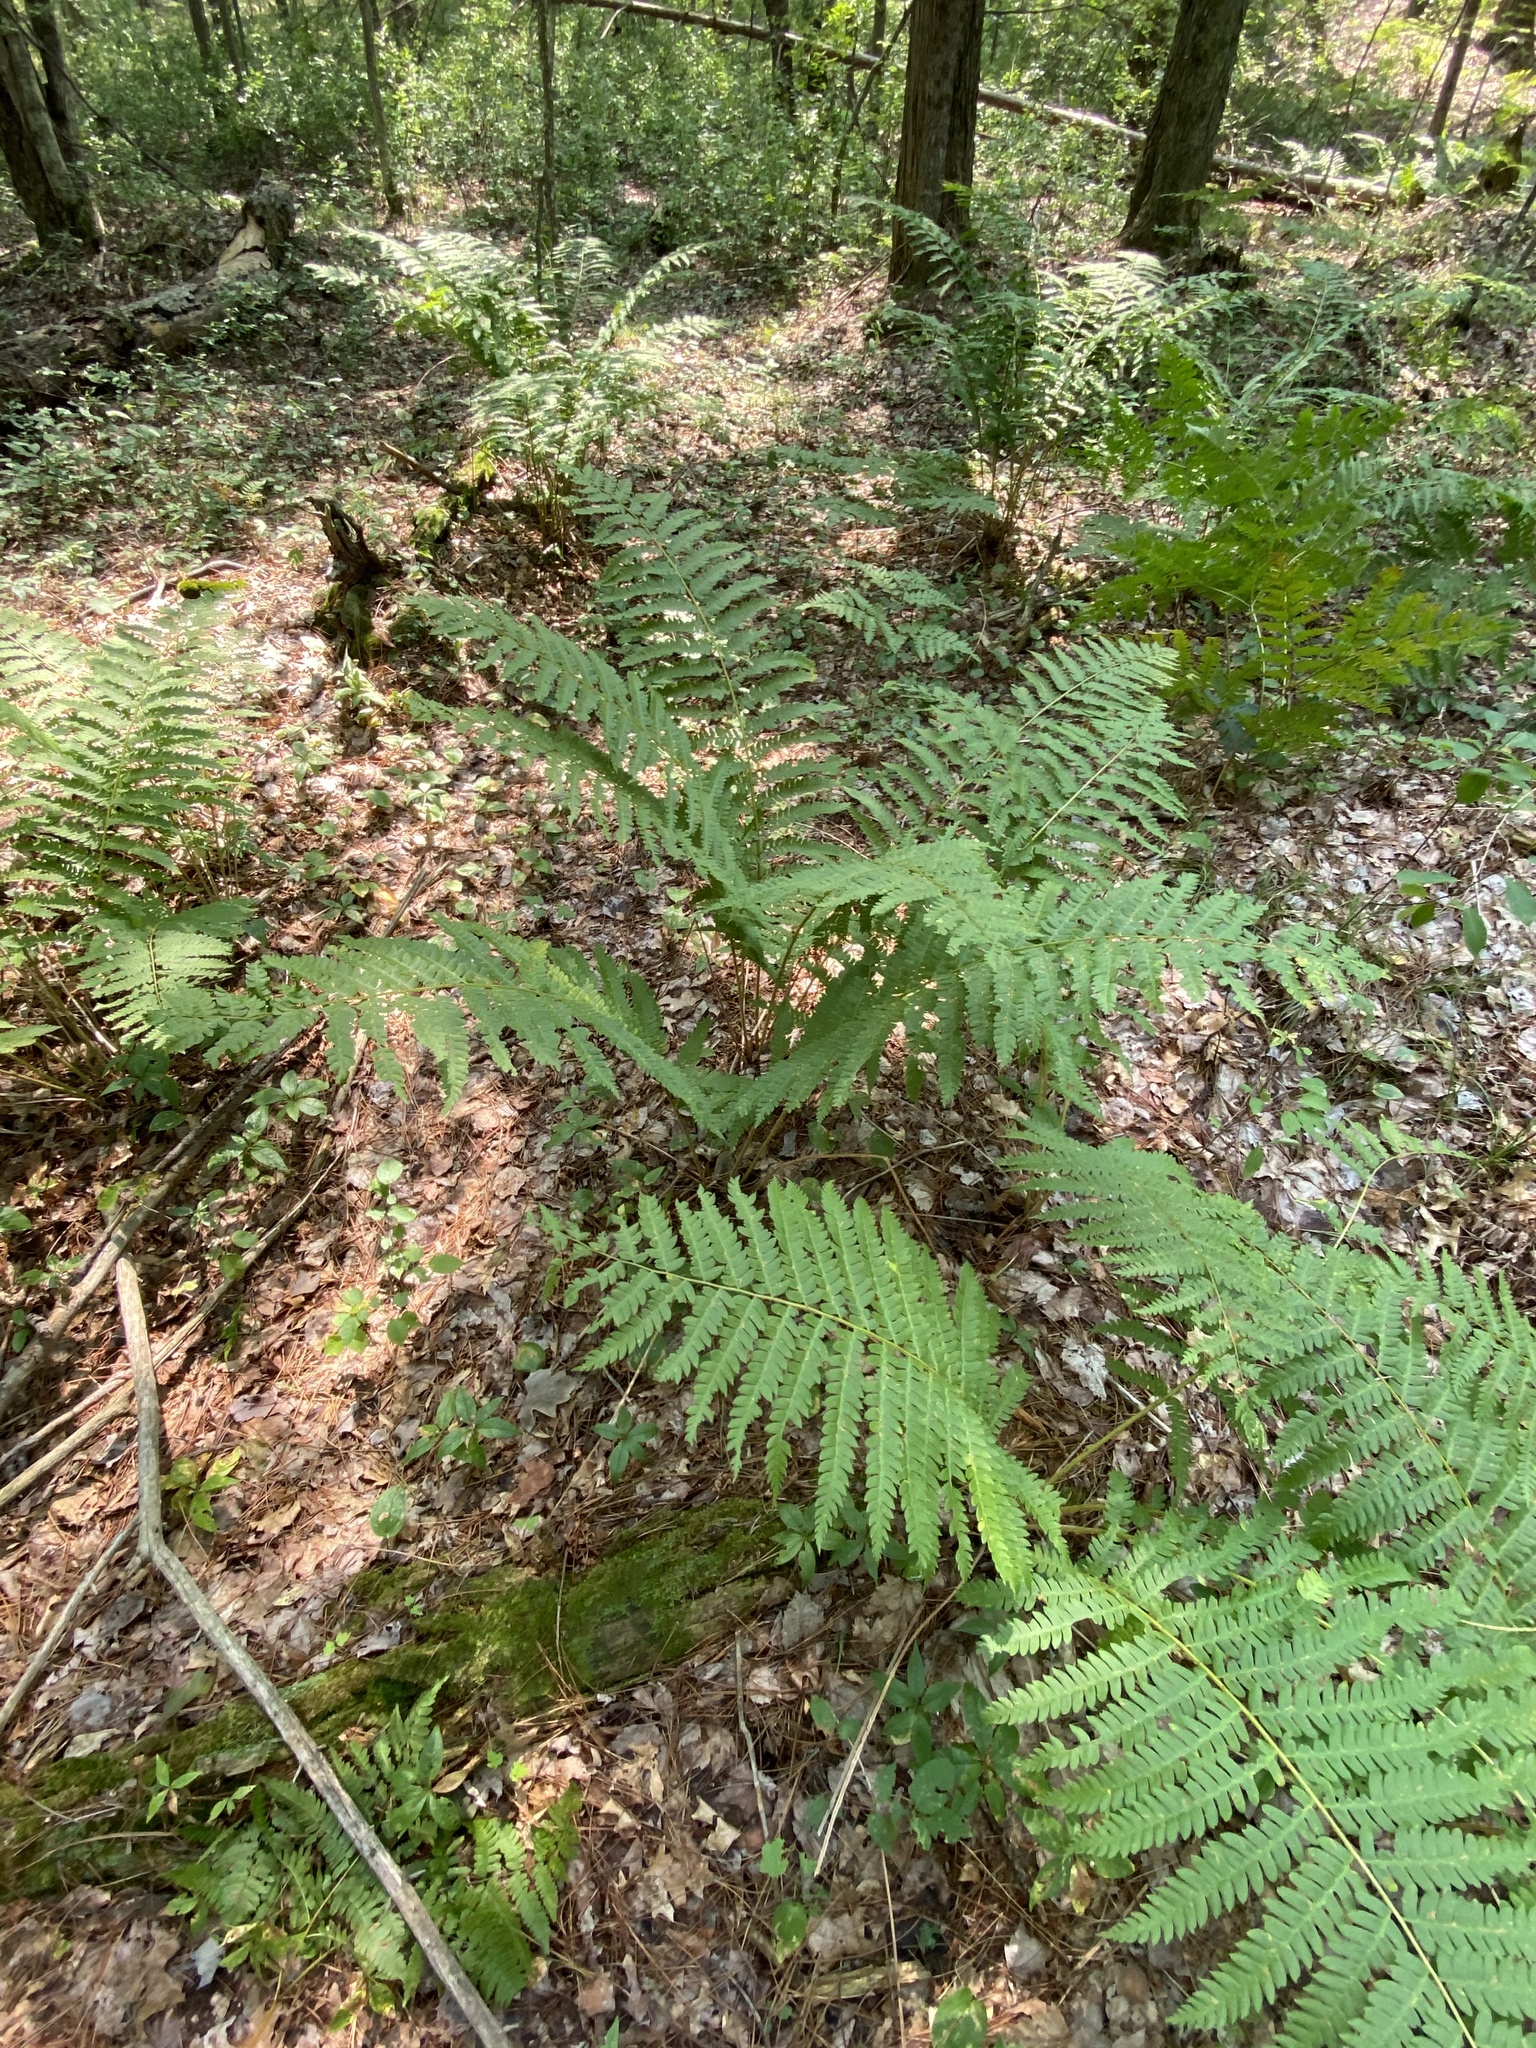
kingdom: Plantae
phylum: Tracheophyta
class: Polypodiopsida
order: Osmundales
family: Osmundaceae
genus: Osmundastrum
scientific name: Osmundastrum cinnamomeum
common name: Cinnamon fern
